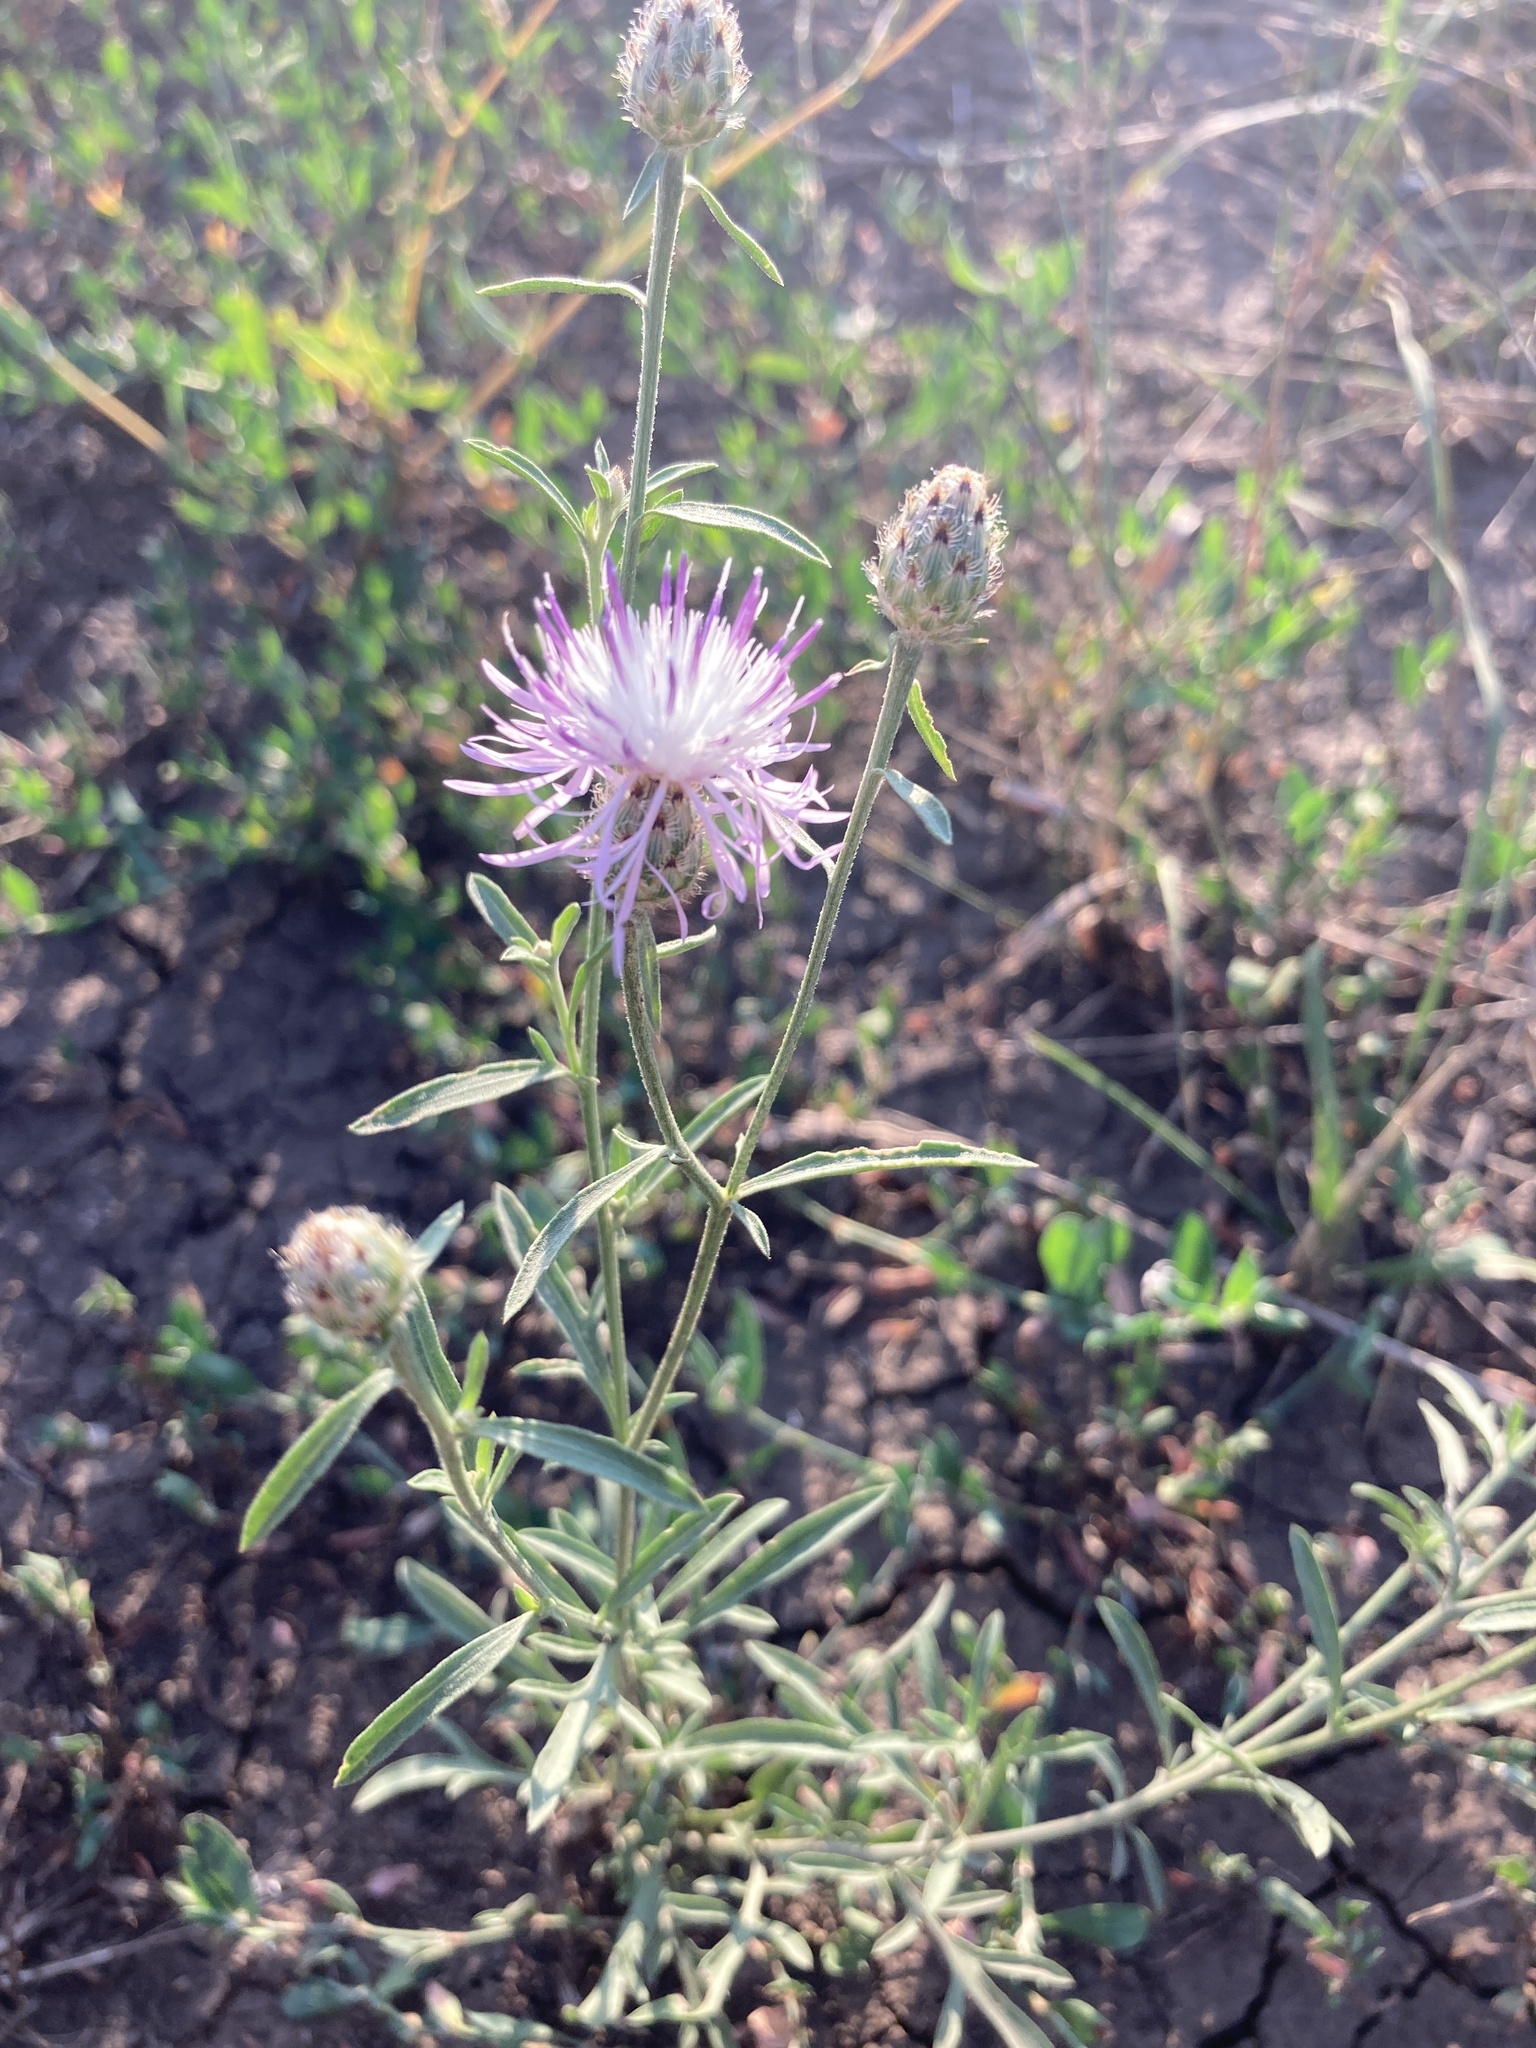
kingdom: Plantae
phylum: Tracheophyta
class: Magnoliopsida
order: Asterales
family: Asteraceae
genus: Centaurea
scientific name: Centaurea pseudomaculosa
